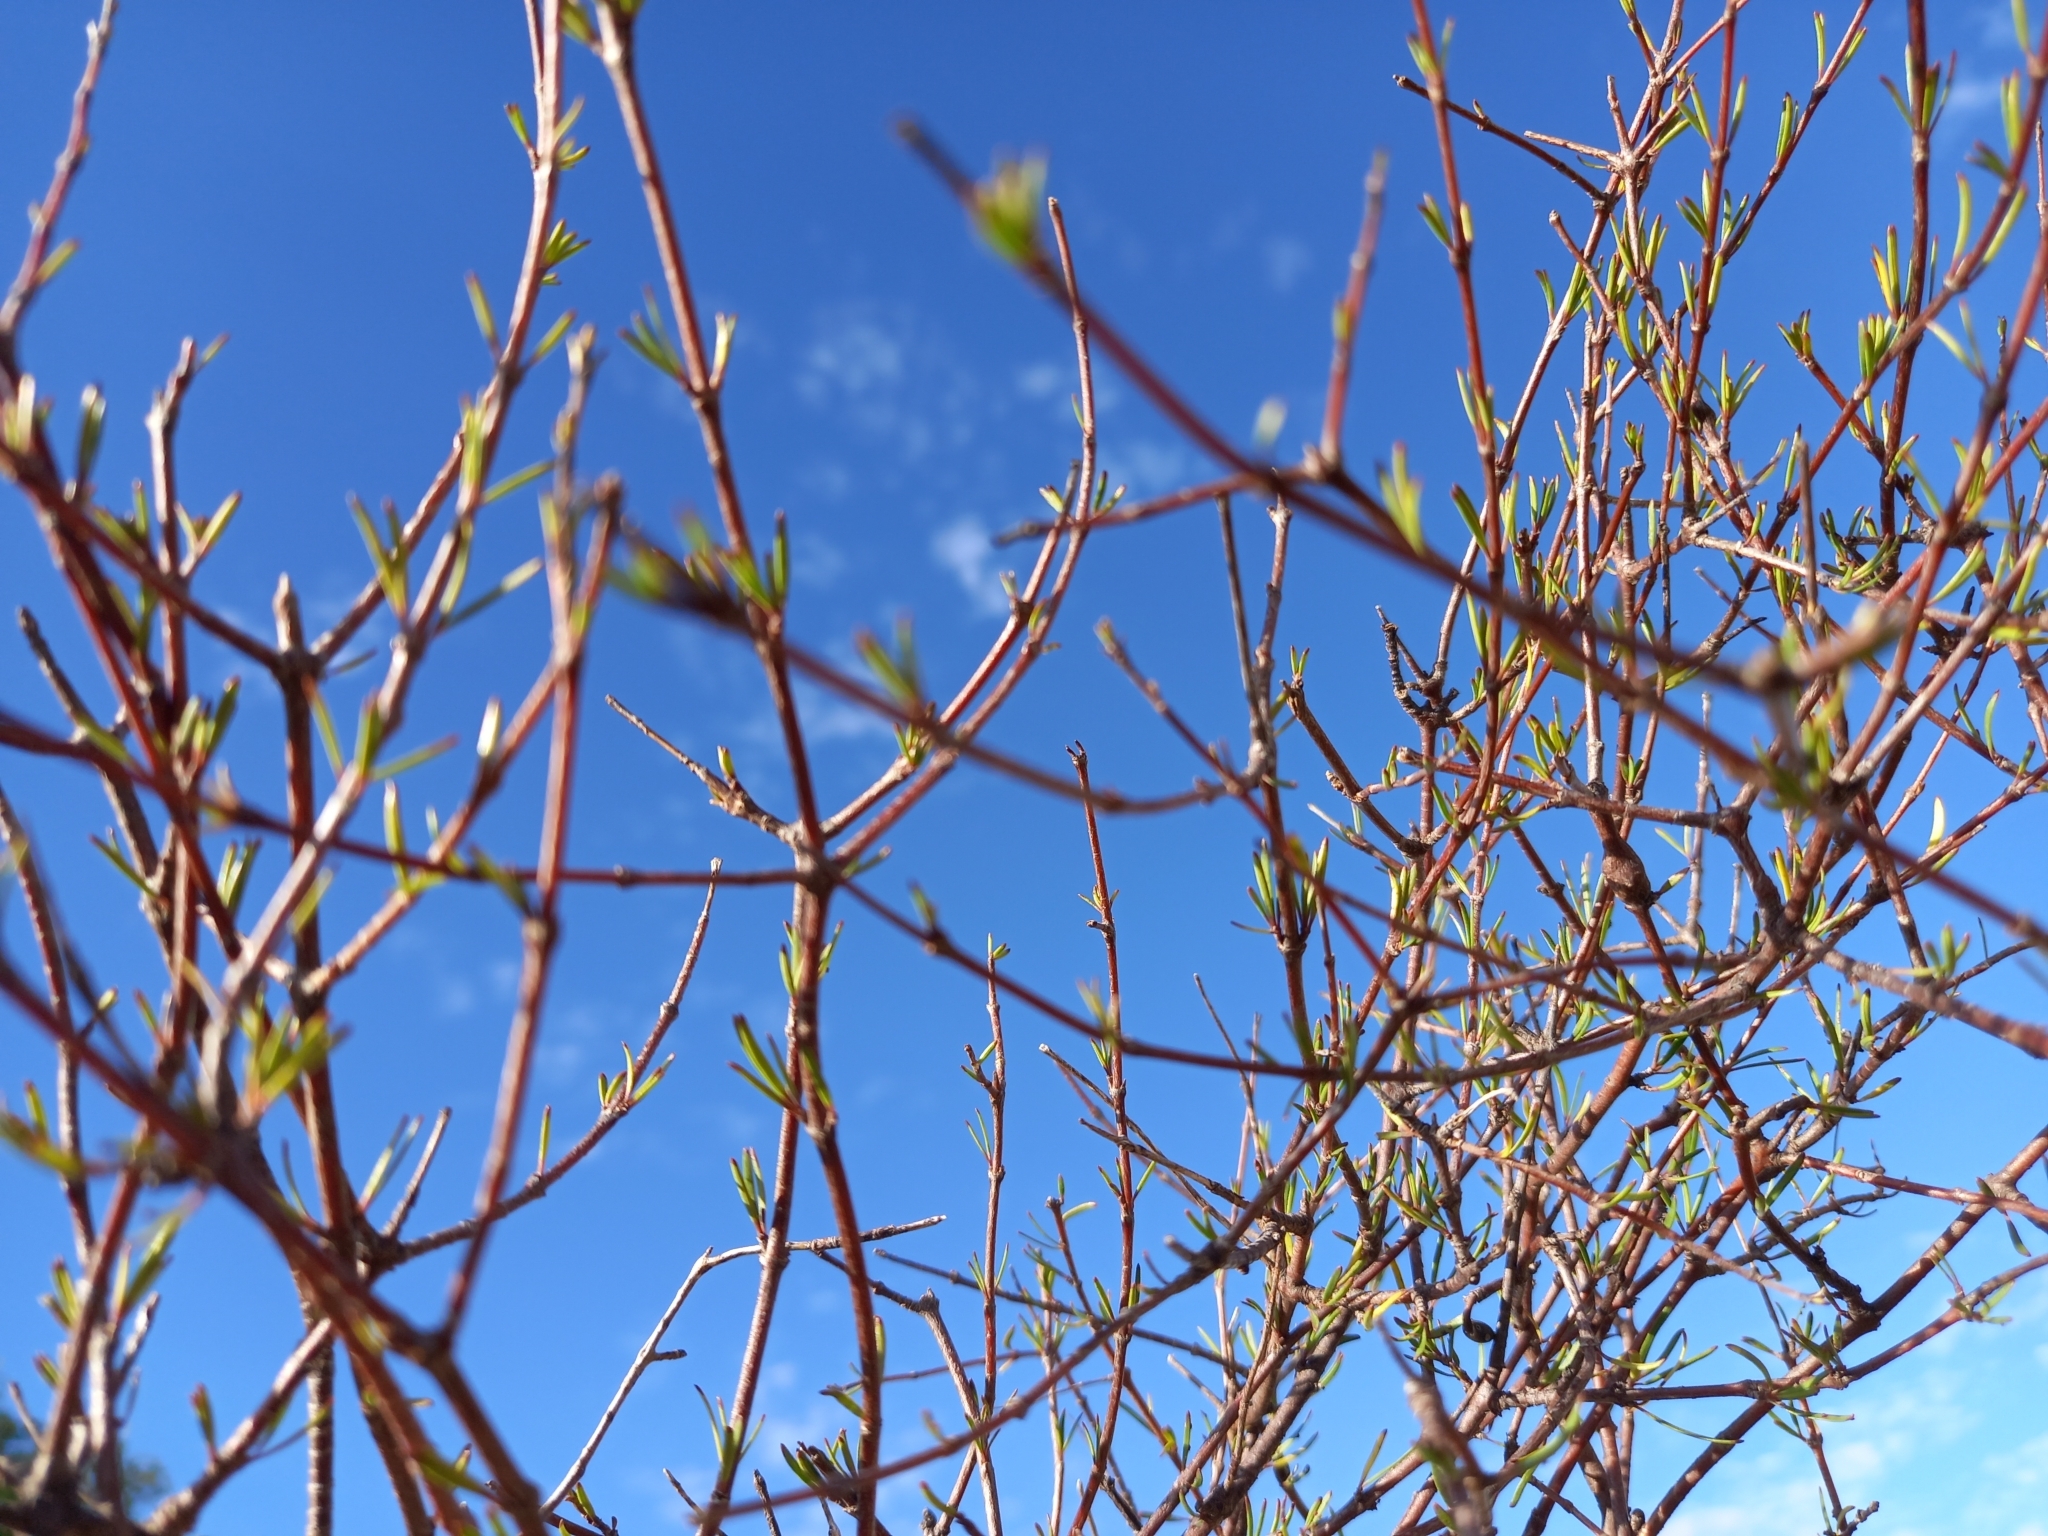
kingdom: Plantae
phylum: Tracheophyta
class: Magnoliopsida
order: Gentianales
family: Rubiaceae
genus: Coprosma
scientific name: Coprosma intertexta
